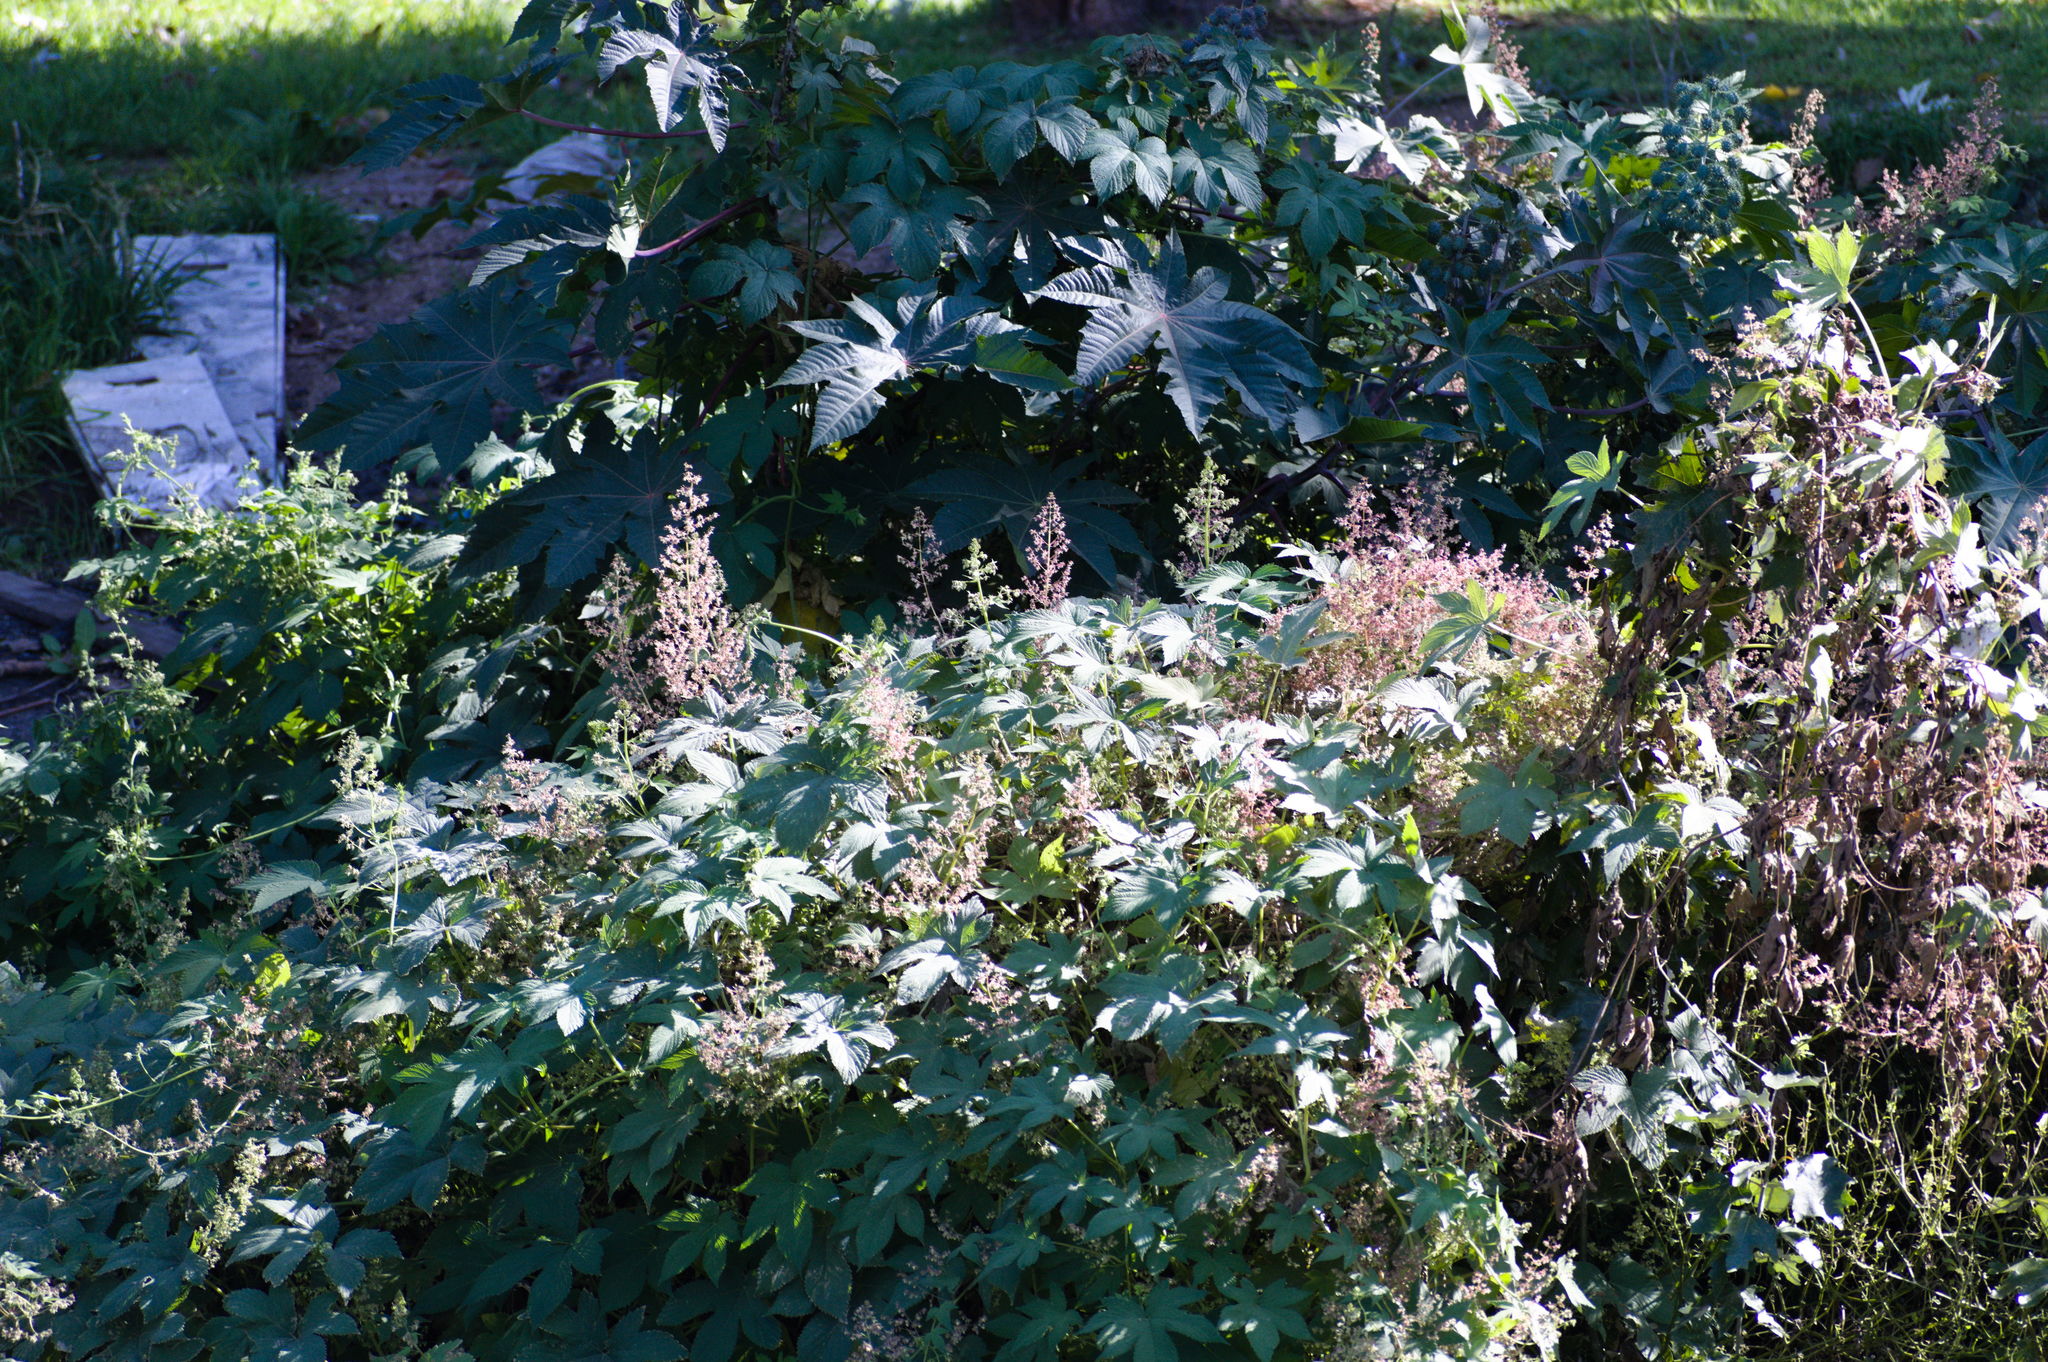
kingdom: Plantae
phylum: Tracheophyta
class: Magnoliopsida
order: Malpighiales
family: Euphorbiaceae
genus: Ricinus
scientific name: Ricinus communis
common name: Castor-oil-plant
